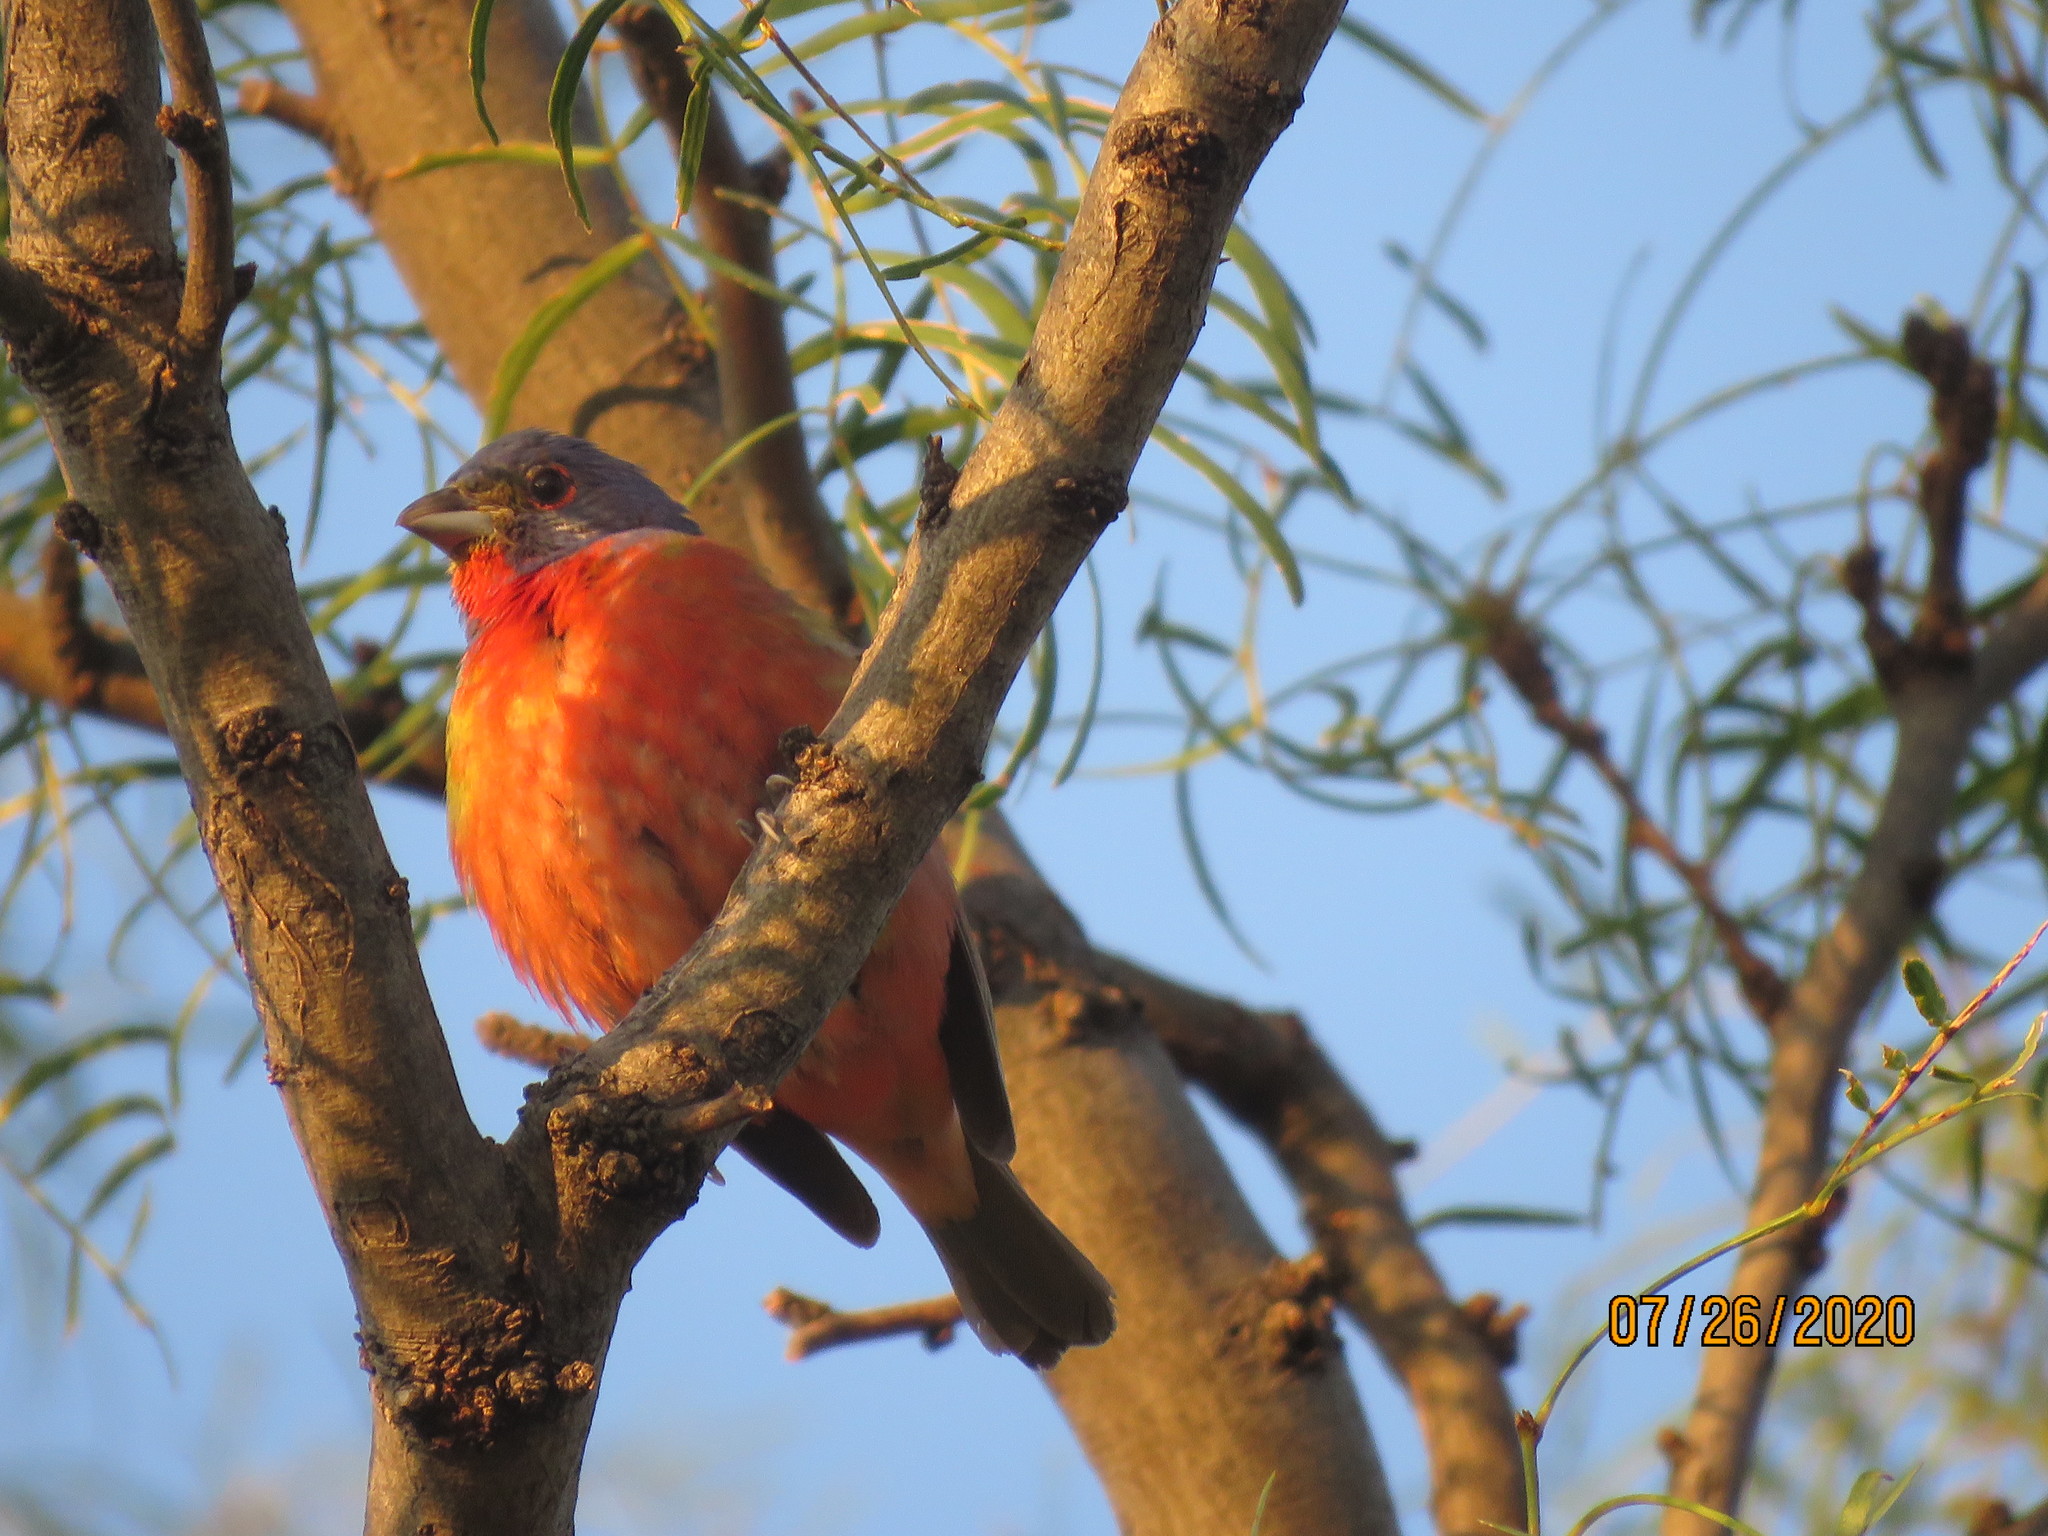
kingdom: Animalia
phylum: Chordata
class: Aves
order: Passeriformes
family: Cardinalidae
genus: Passerina
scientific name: Passerina ciris
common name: Painted bunting
